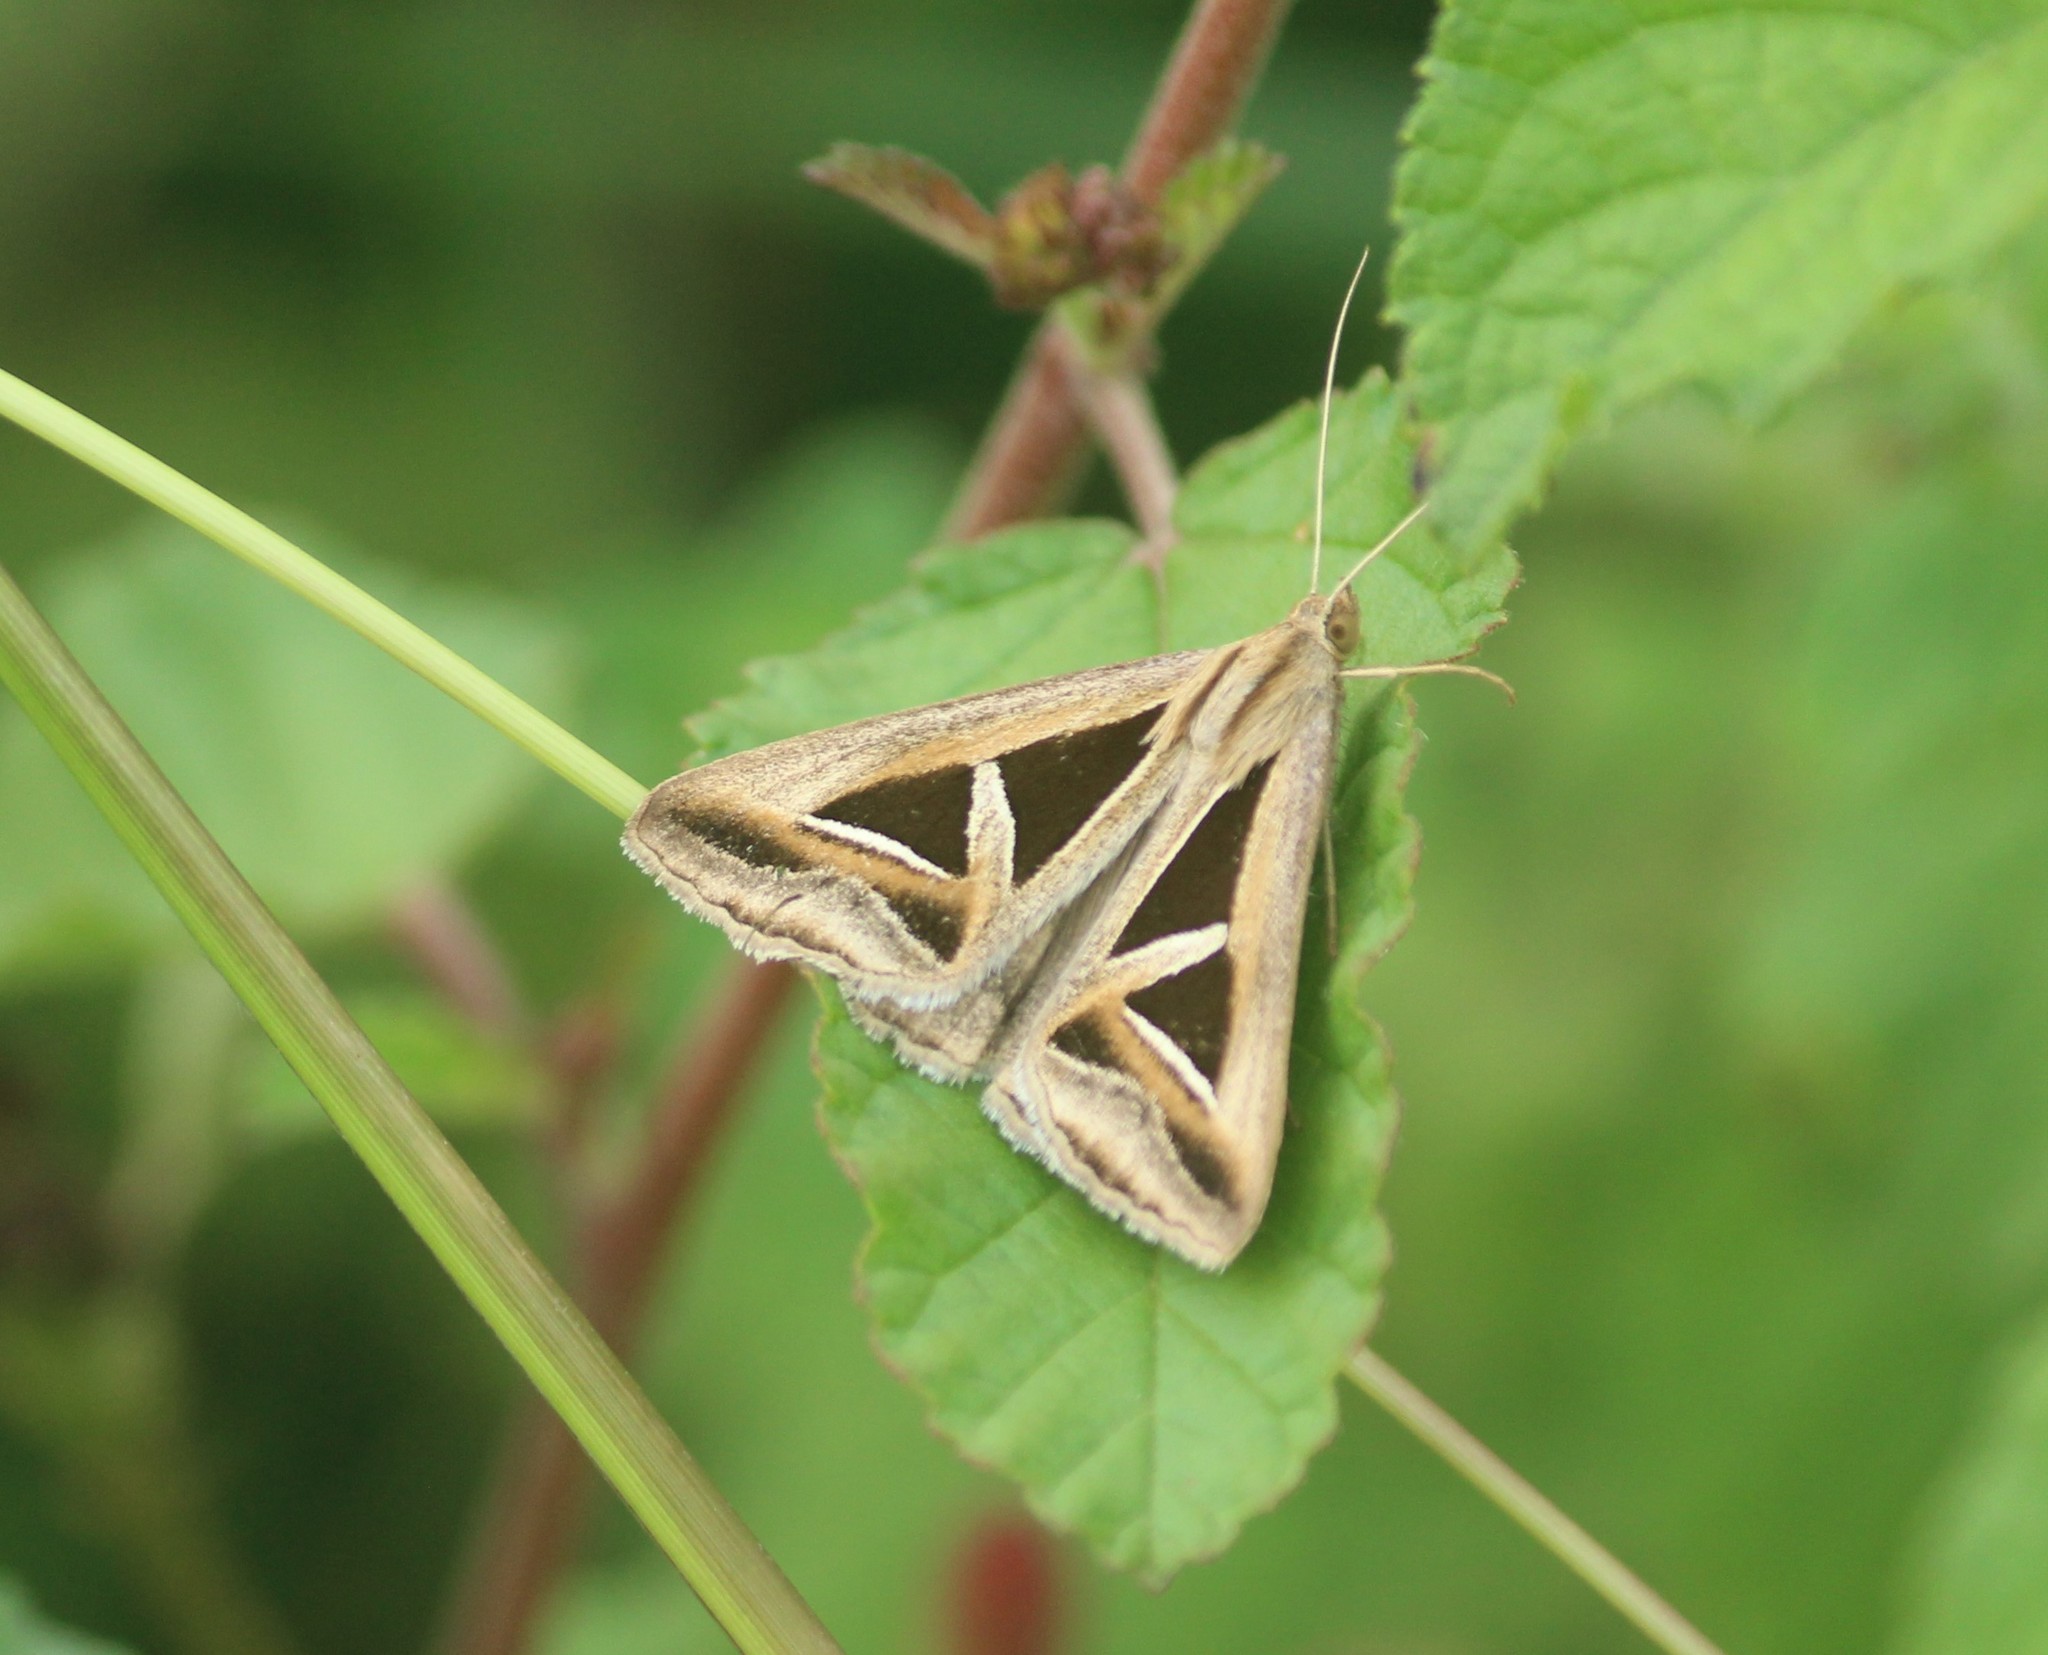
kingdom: Animalia
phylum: Arthropoda
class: Insecta
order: Lepidoptera
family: Erebidae
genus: Trigonodes
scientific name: Trigonodes hyppasia
